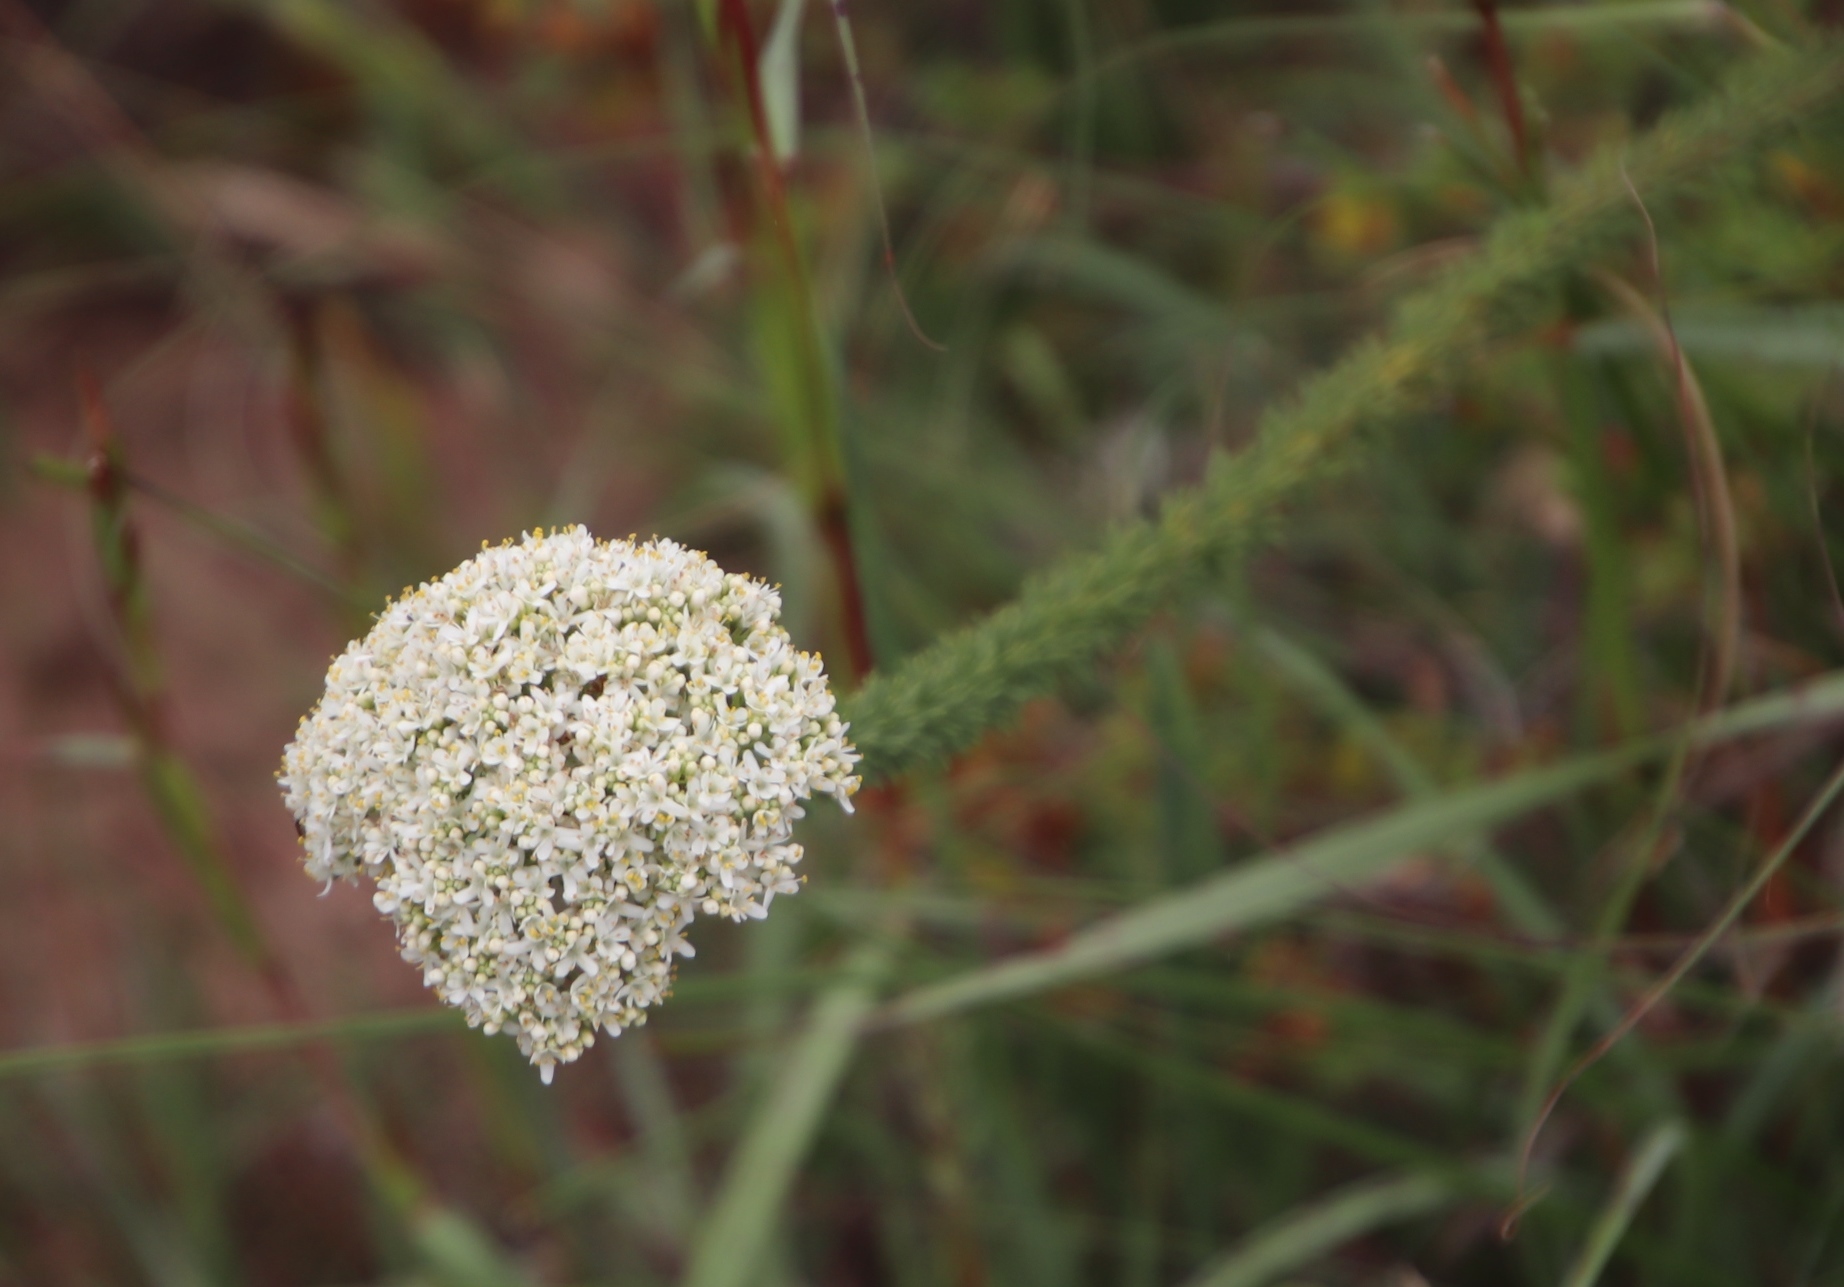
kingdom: Plantae
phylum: Tracheophyta
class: Magnoliopsida
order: Lamiales
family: Scrophulariaceae
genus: Selago
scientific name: Selago dolosa
